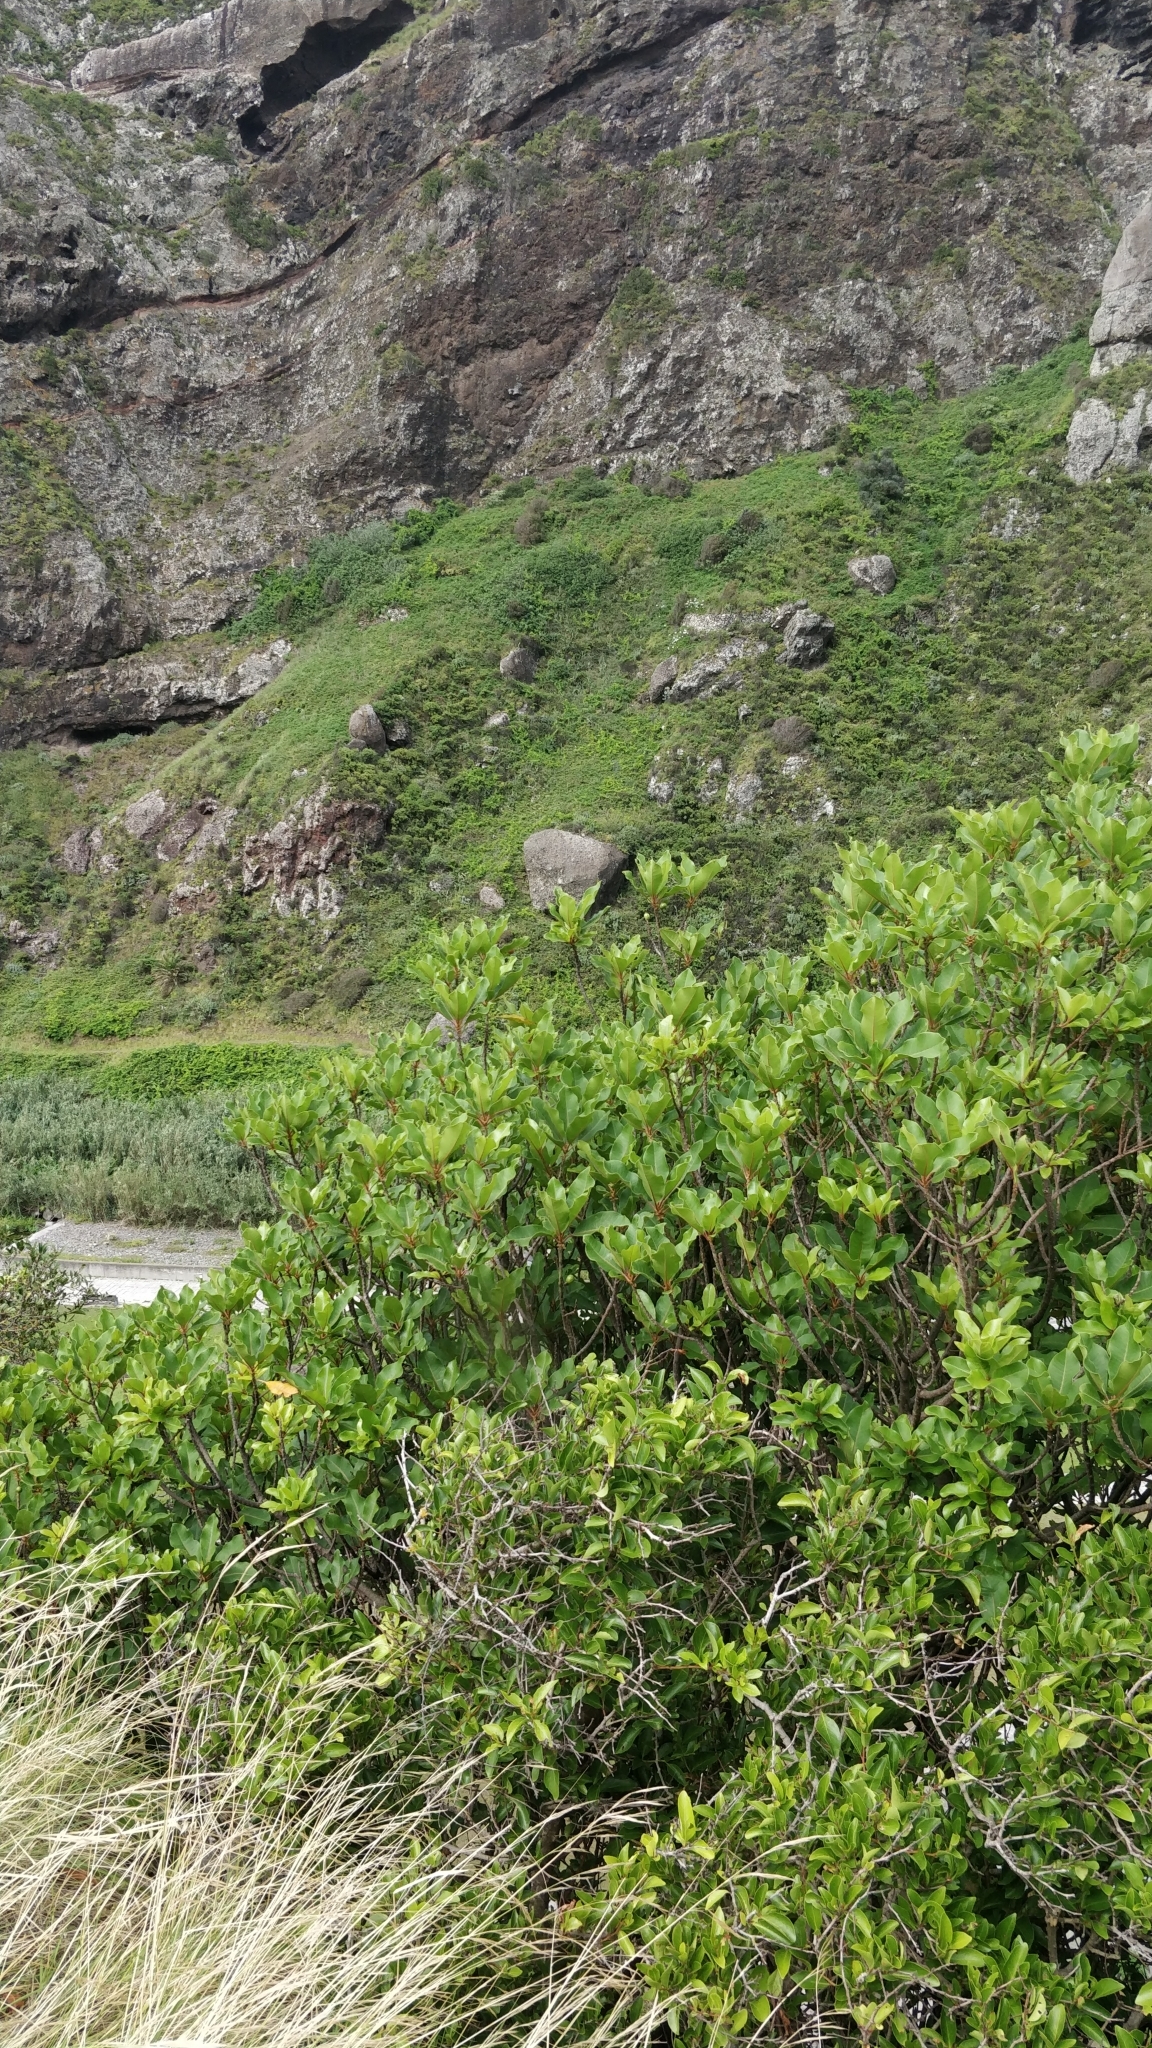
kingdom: Plantae
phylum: Tracheophyta
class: Magnoliopsida
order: Ericales
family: Sapotaceae
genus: Sideroxylon
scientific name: Sideroxylon mirmulans
